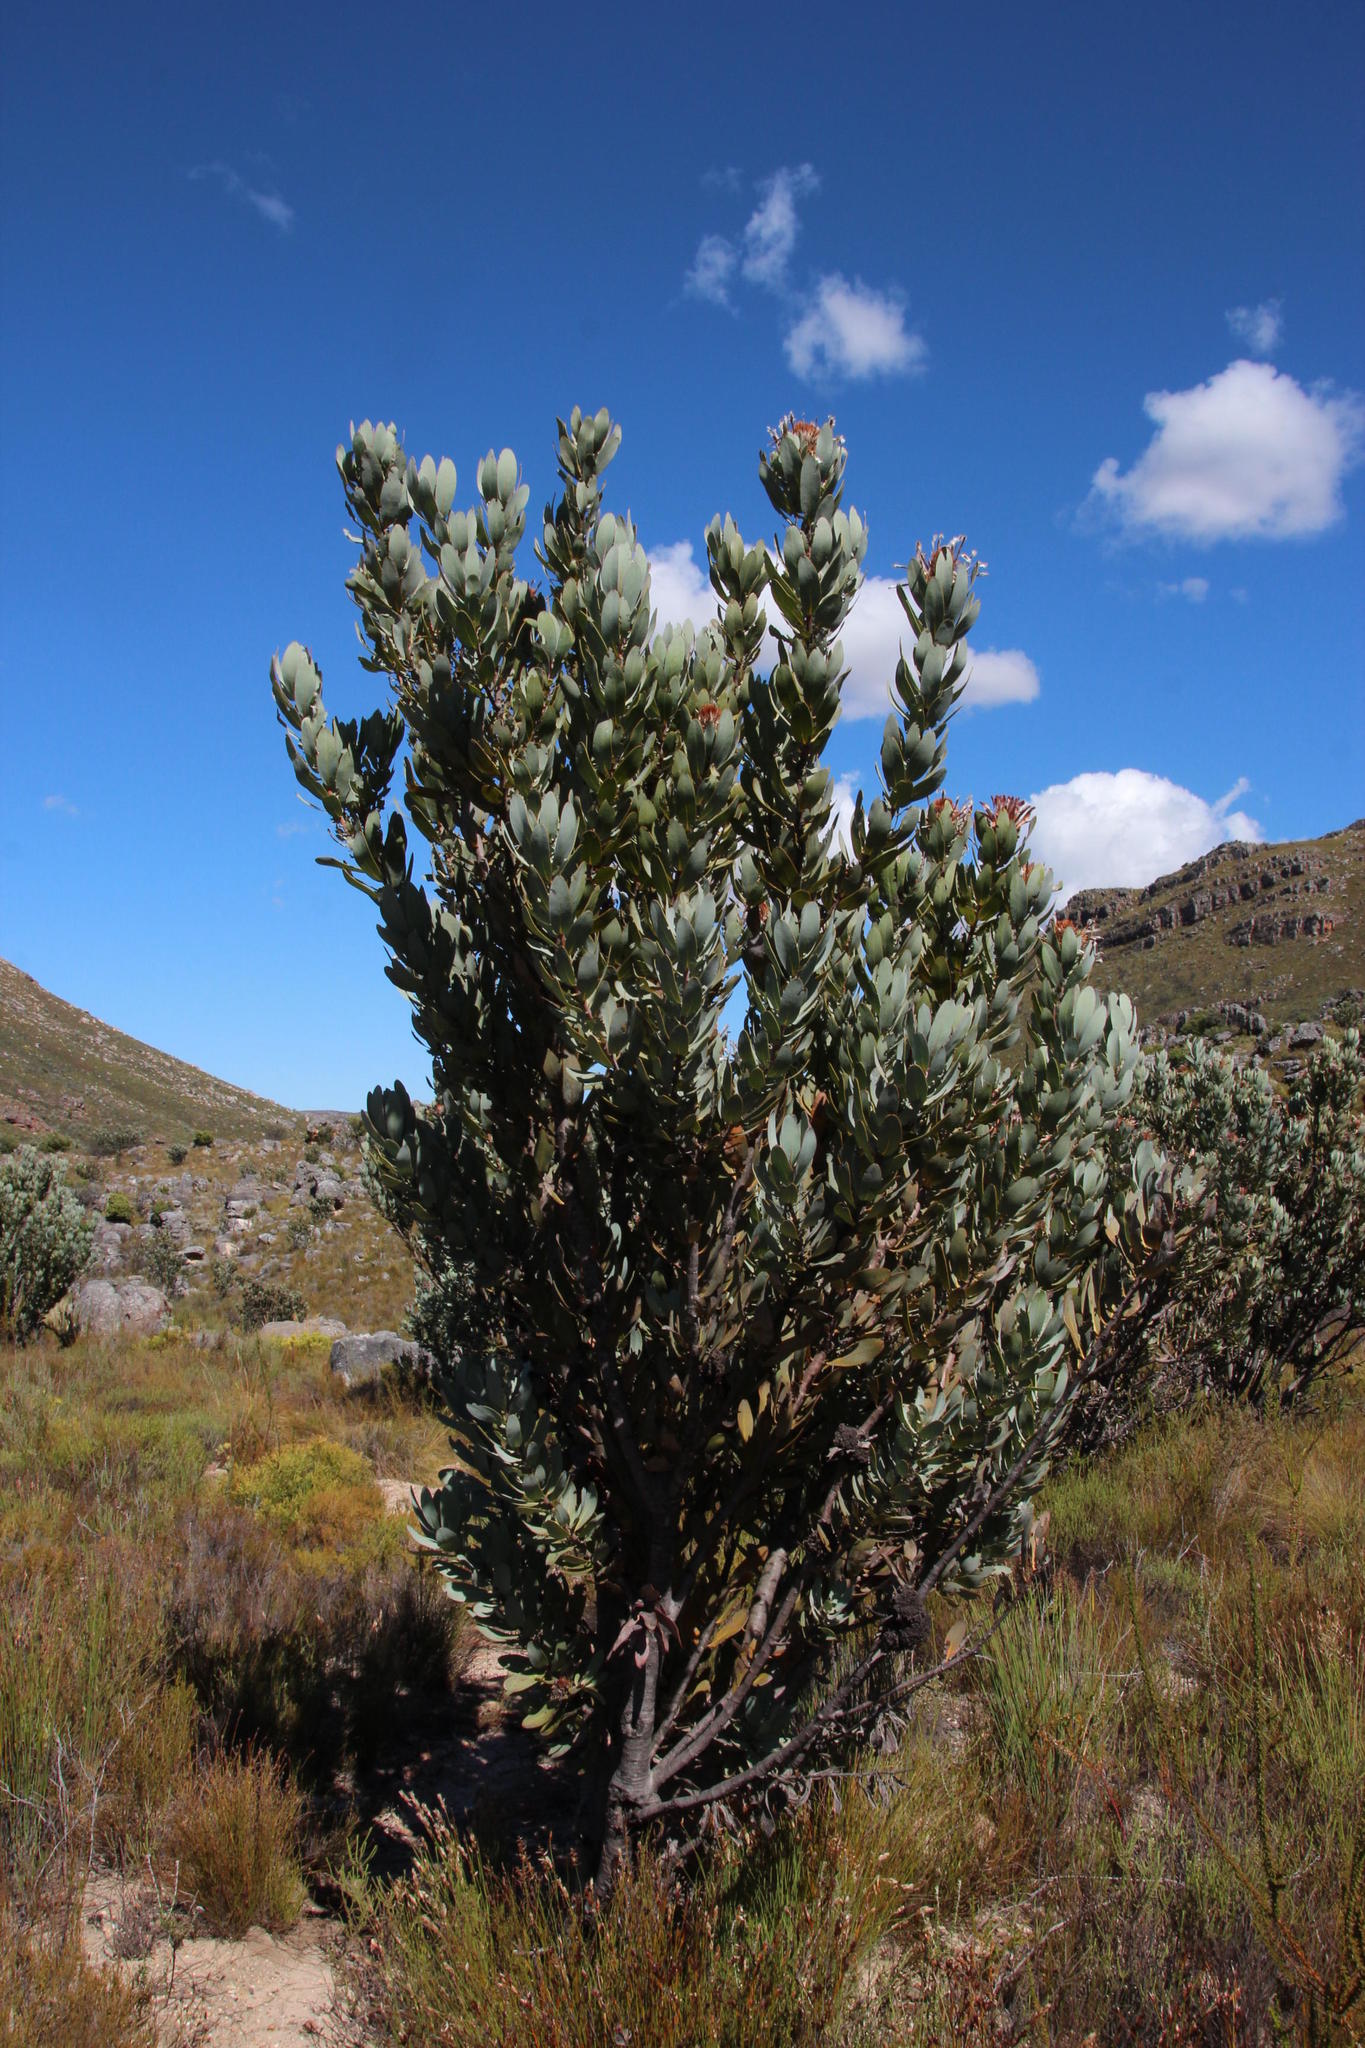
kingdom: Plantae
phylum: Tracheophyta
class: Magnoliopsida
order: Proteales
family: Proteaceae
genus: Protea
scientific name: Protea laurifolia
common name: Grey-leaf sugarbsh
